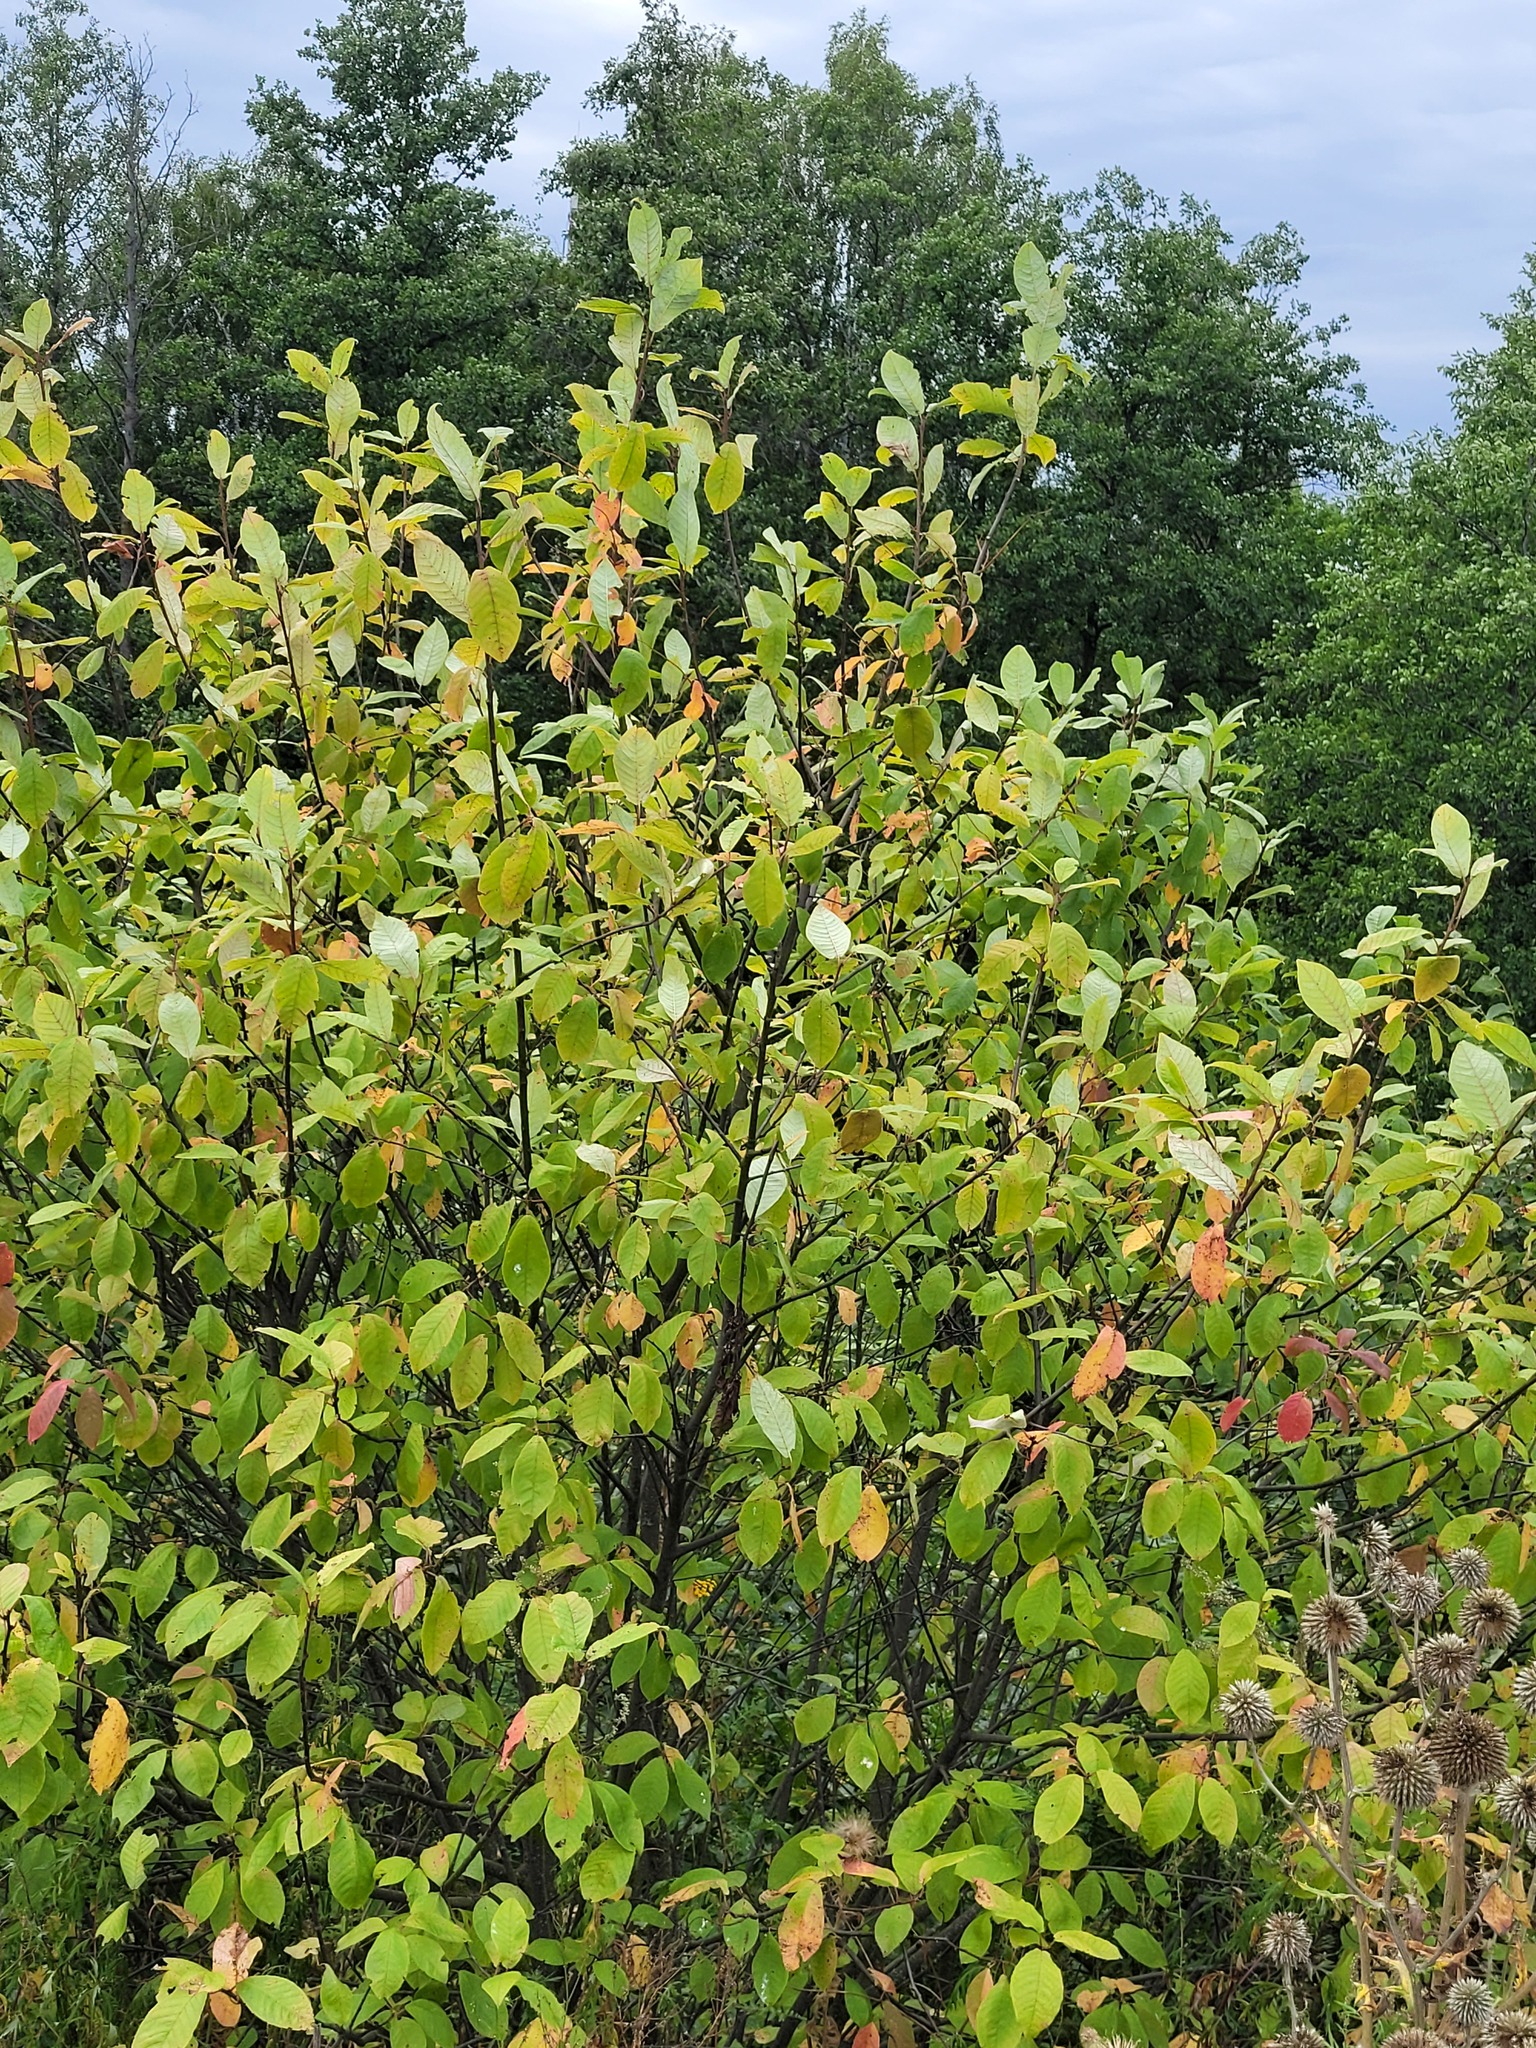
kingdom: Plantae
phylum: Tracheophyta
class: Magnoliopsida
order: Rosales
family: Rosaceae
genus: Prunus
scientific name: Prunus padus
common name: Bird cherry
